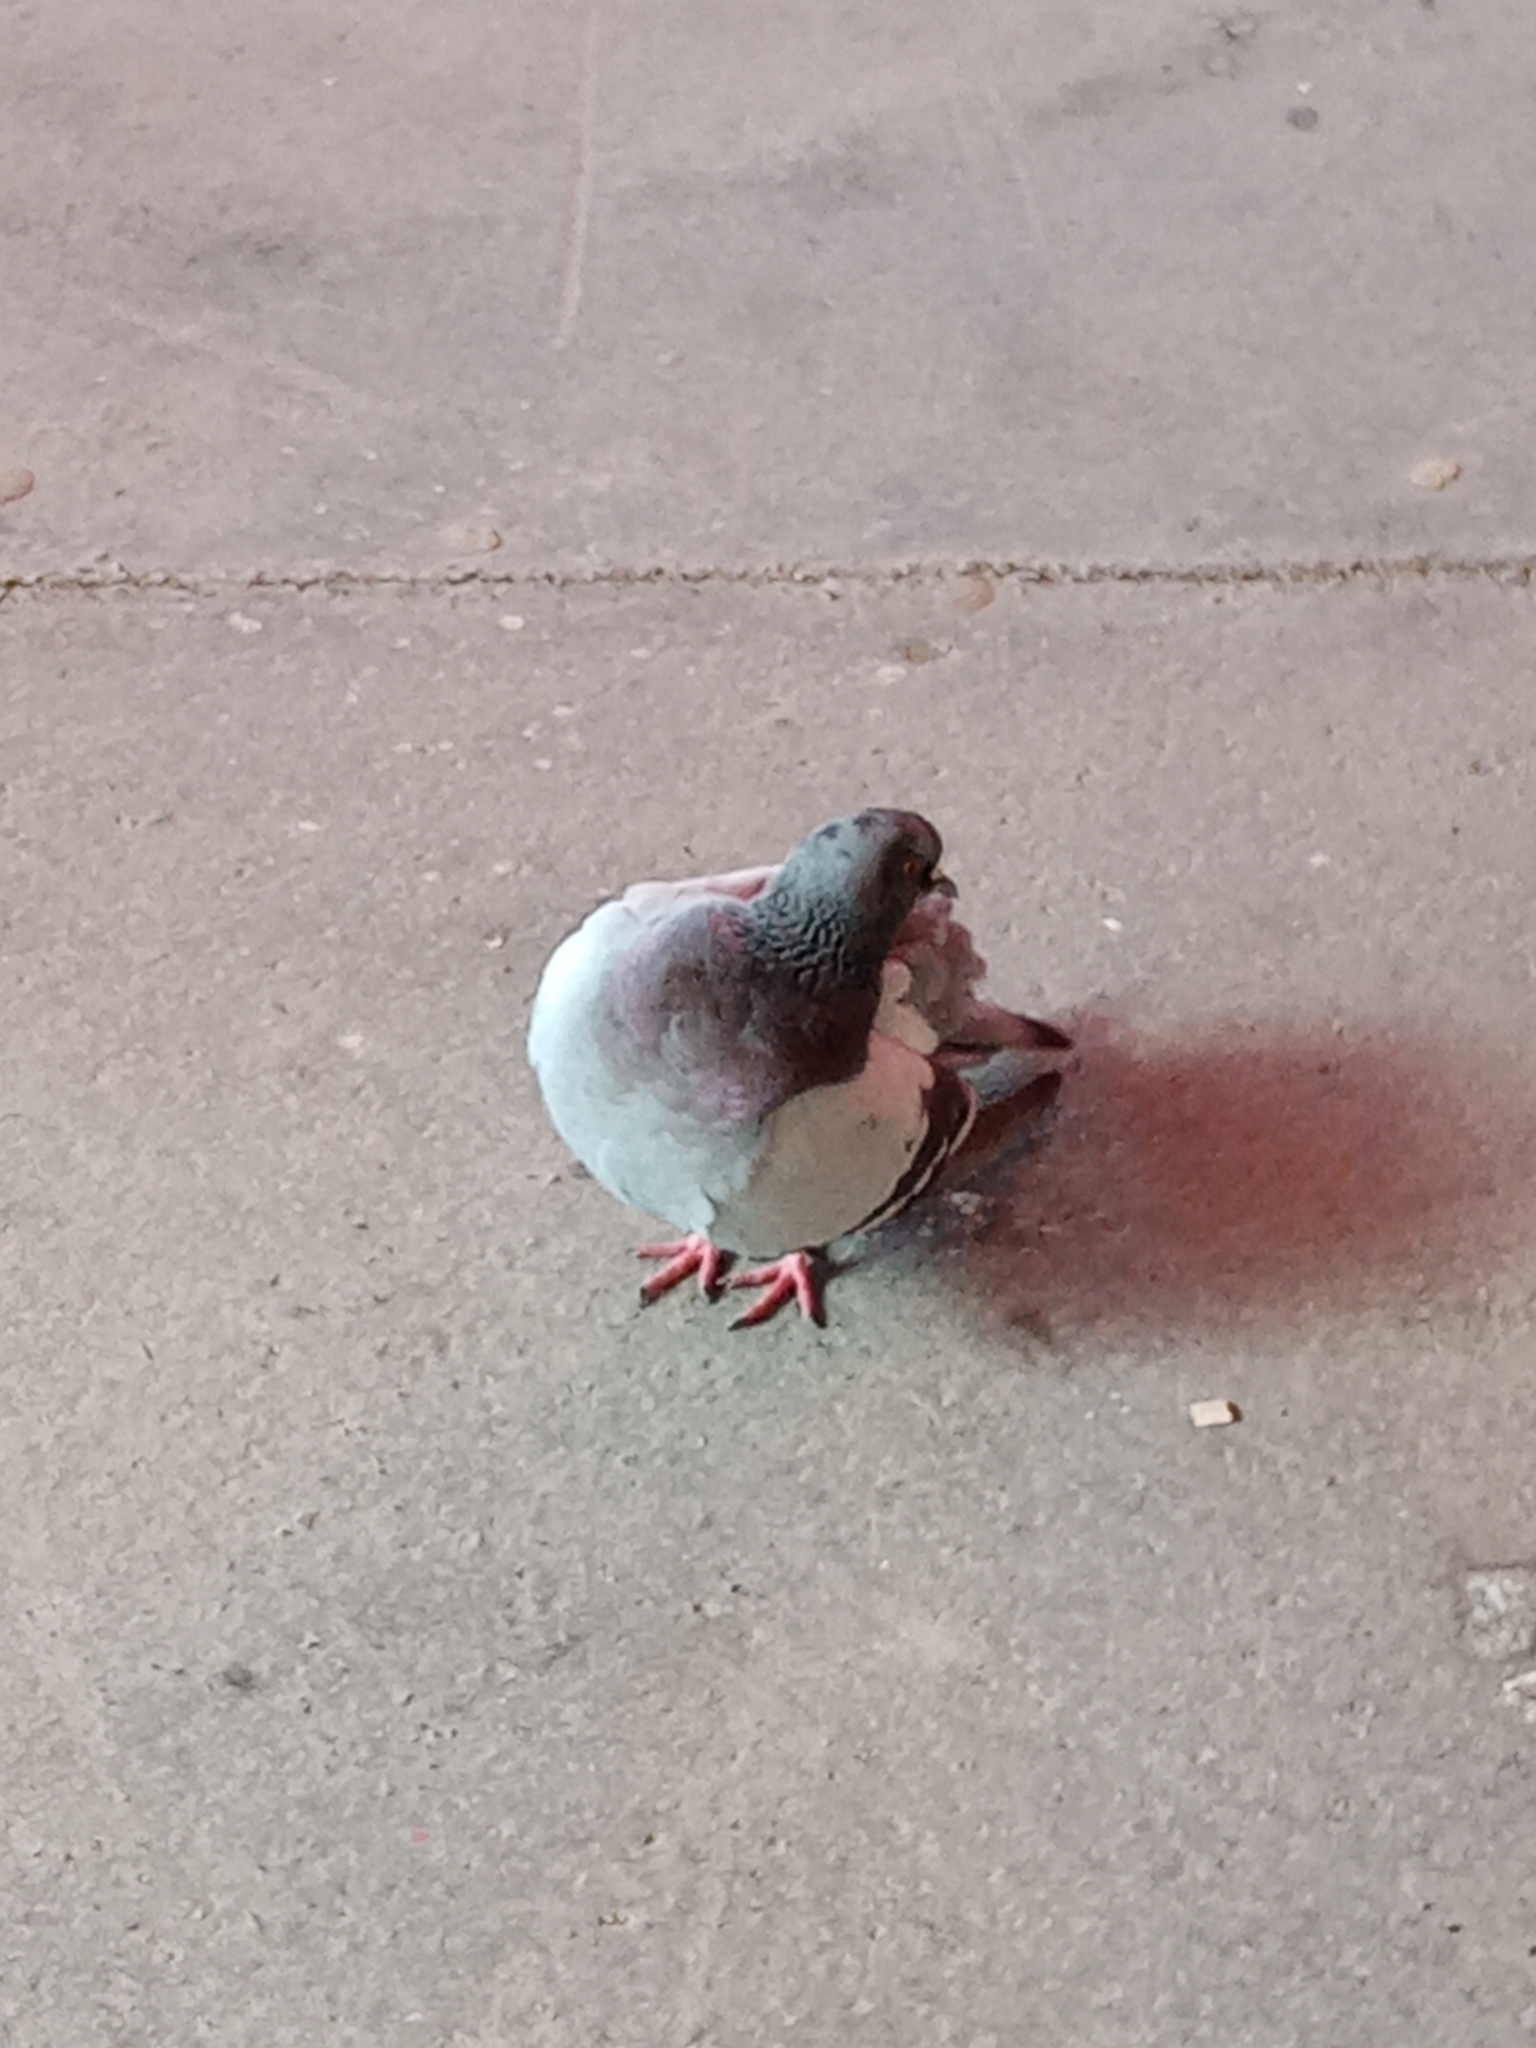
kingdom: Animalia
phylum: Chordata
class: Aves
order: Columbiformes
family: Columbidae
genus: Columba
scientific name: Columba livia
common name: Rock pigeon
